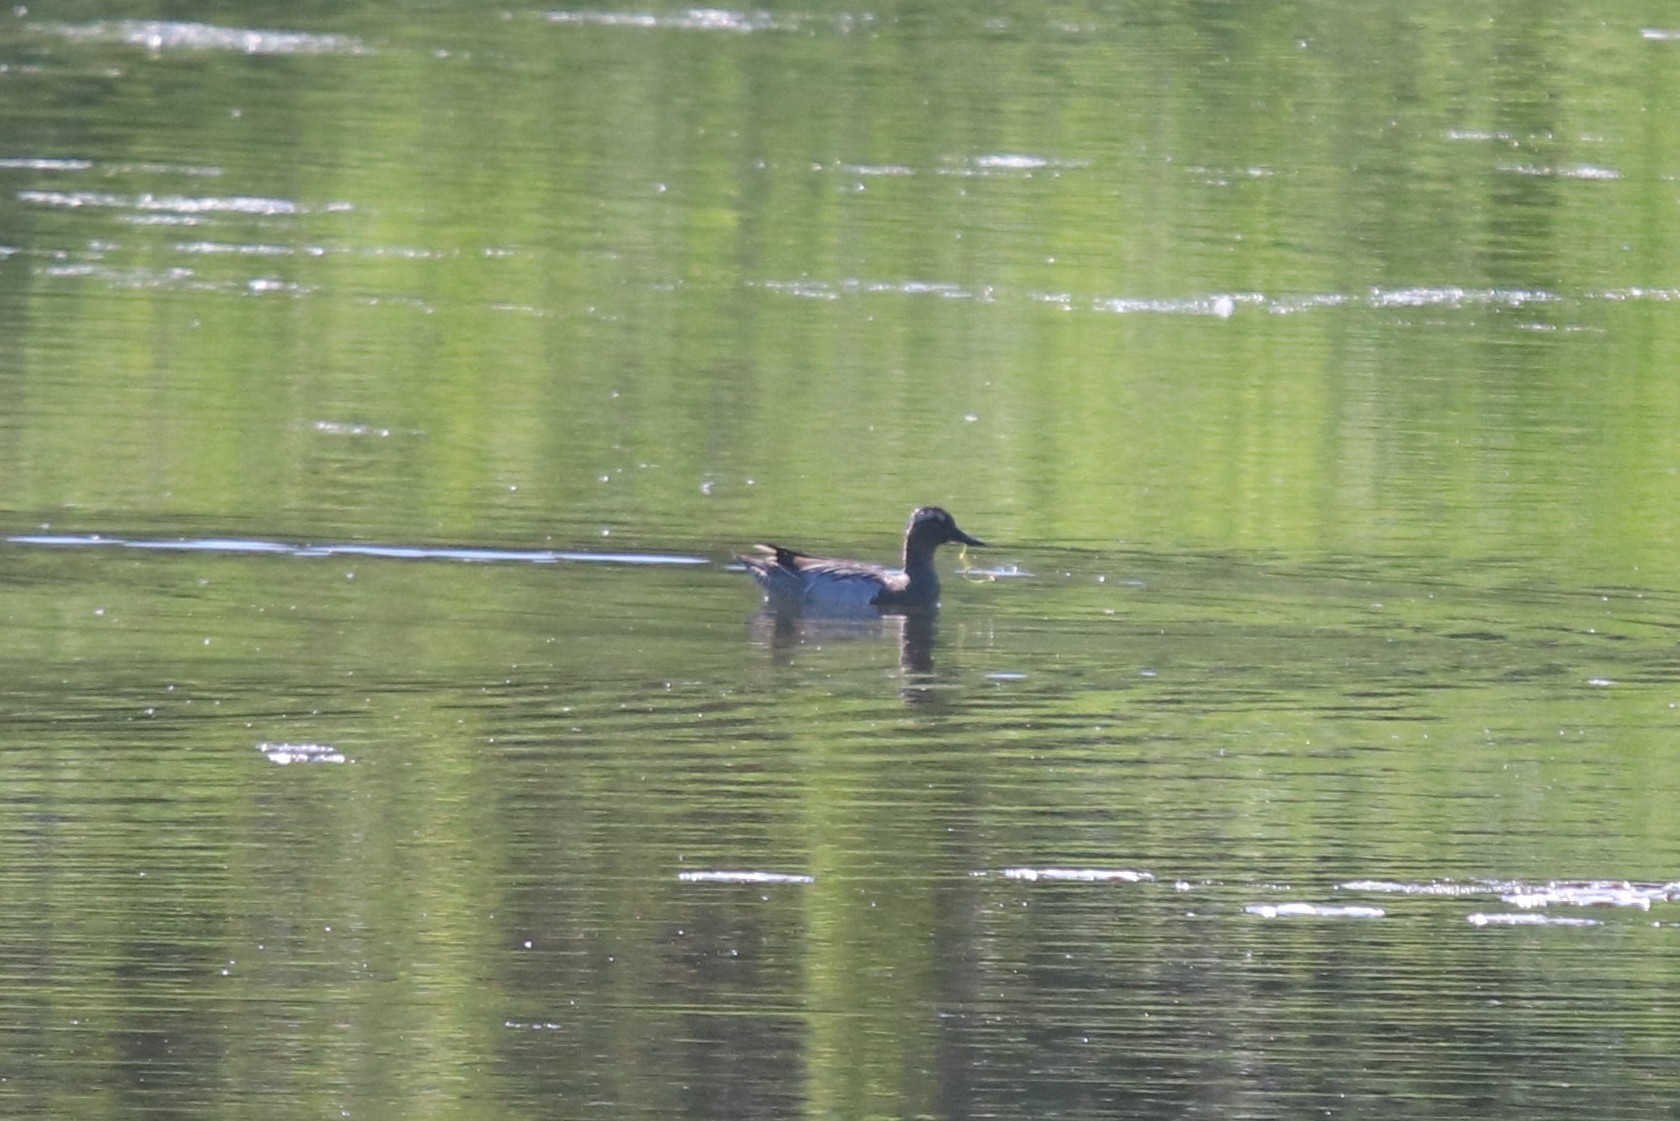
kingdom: Animalia
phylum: Chordata
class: Aves
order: Anseriformes
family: Anatidae
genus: Spatula
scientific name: Spatula querquedula
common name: Garganey
